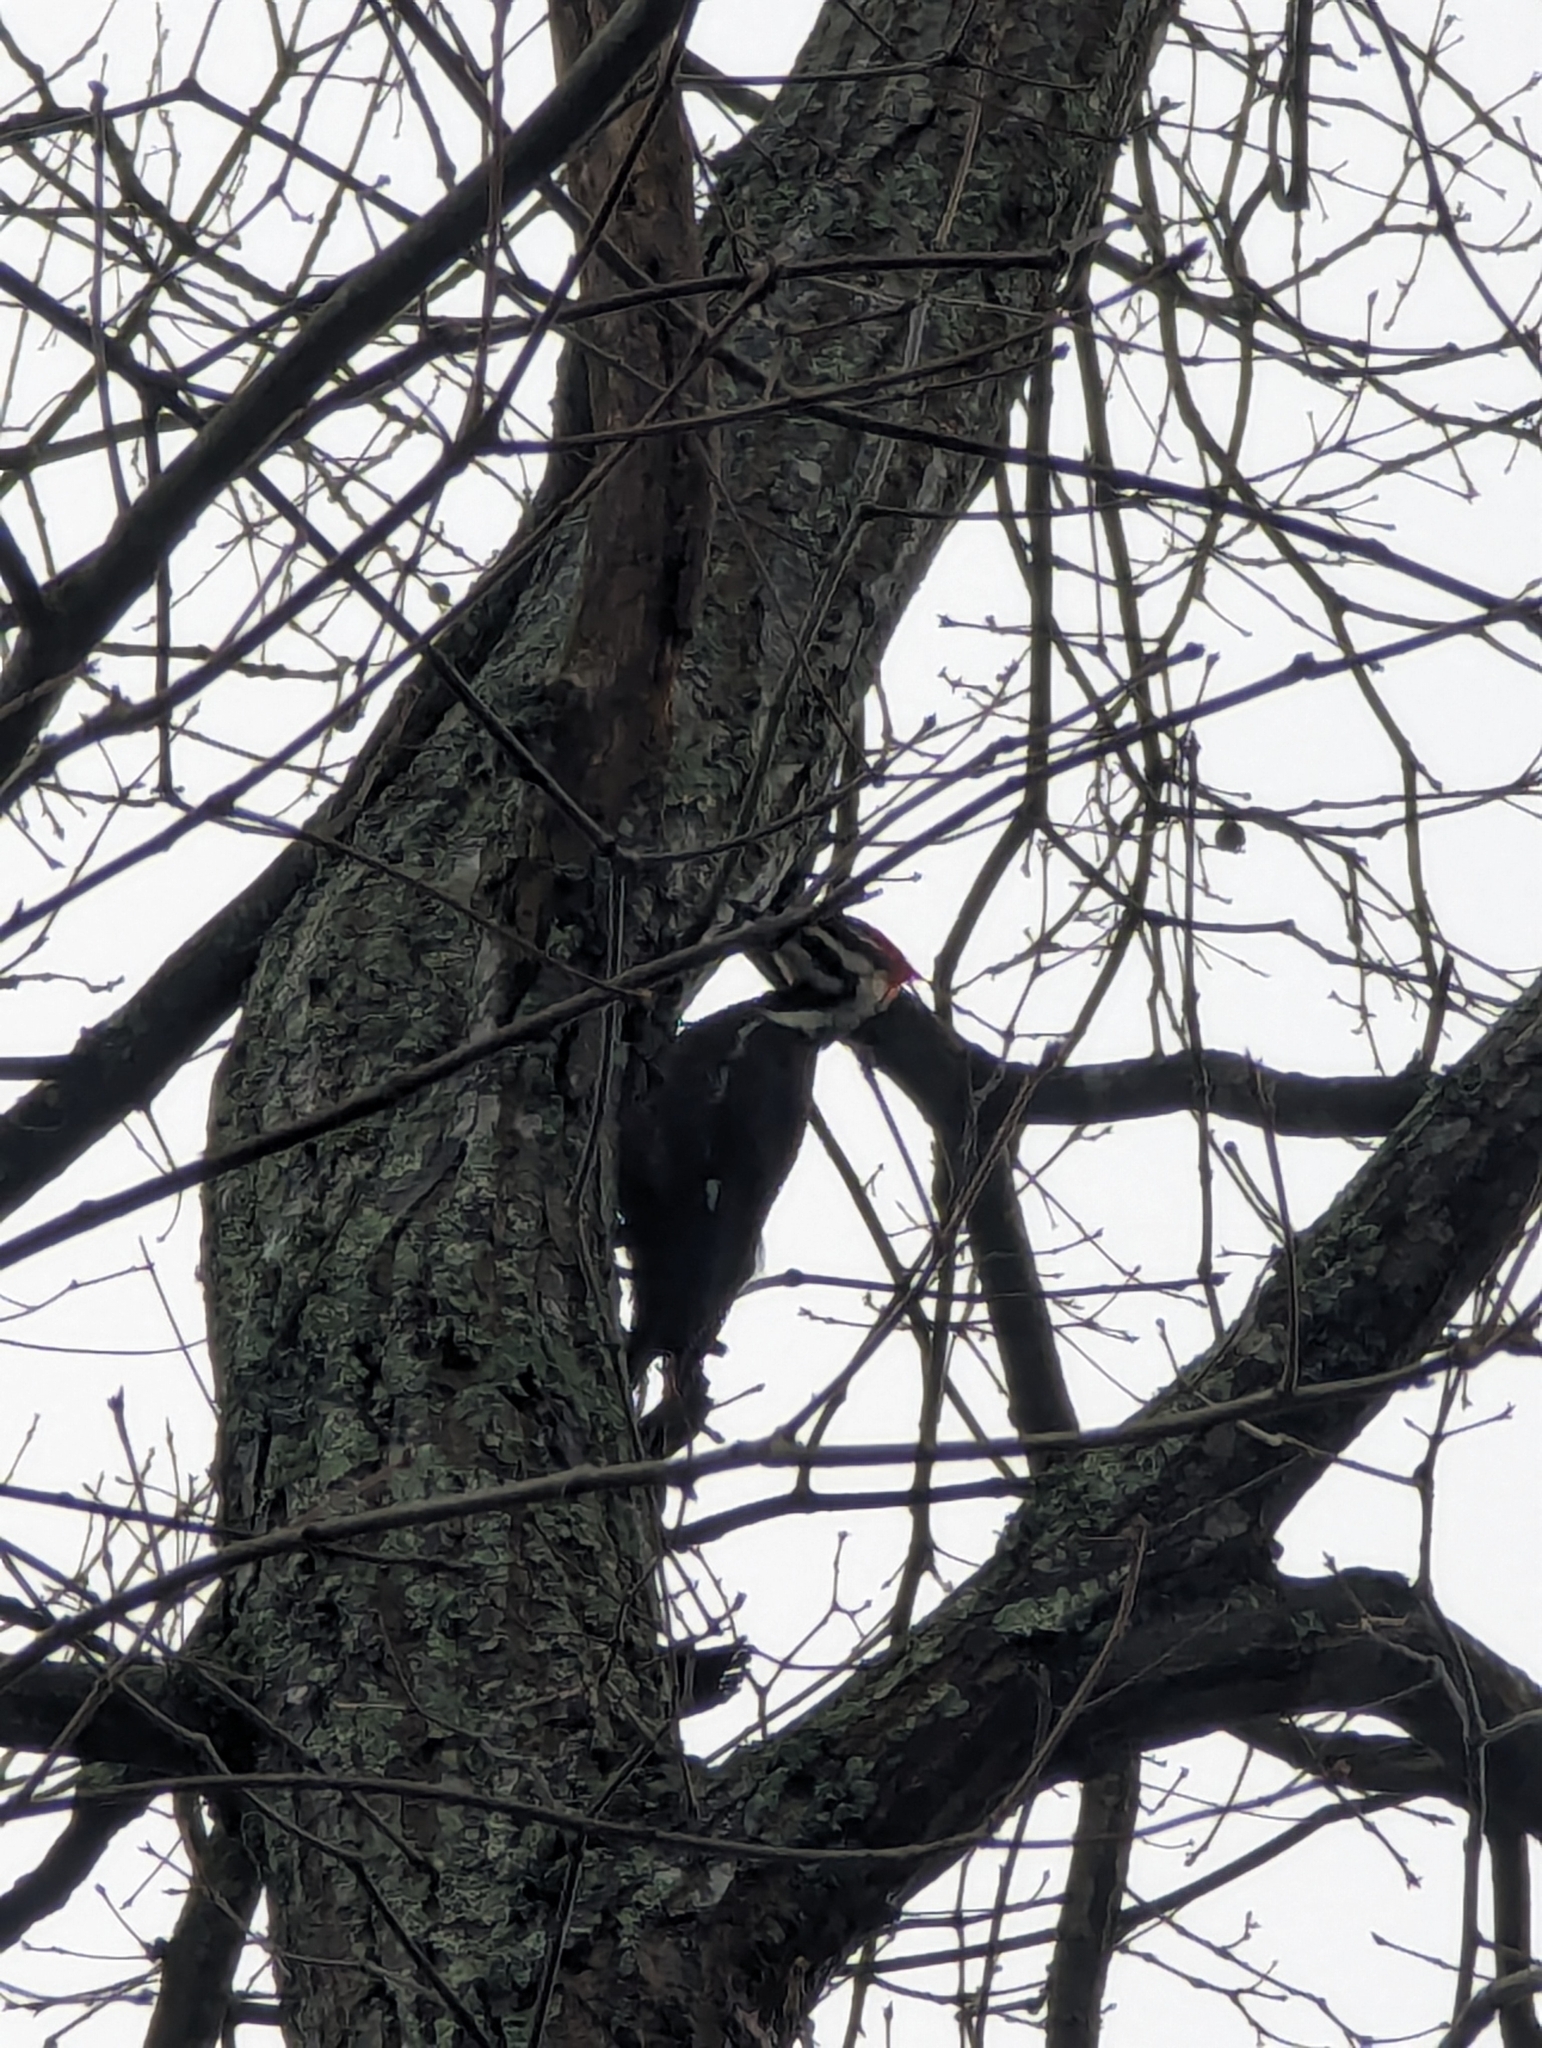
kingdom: Animalia
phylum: Chordata
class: Aves
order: Piciformes
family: Picidae
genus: Dryocopus
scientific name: Dryocopus pileatus
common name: Pileated woodpecker
